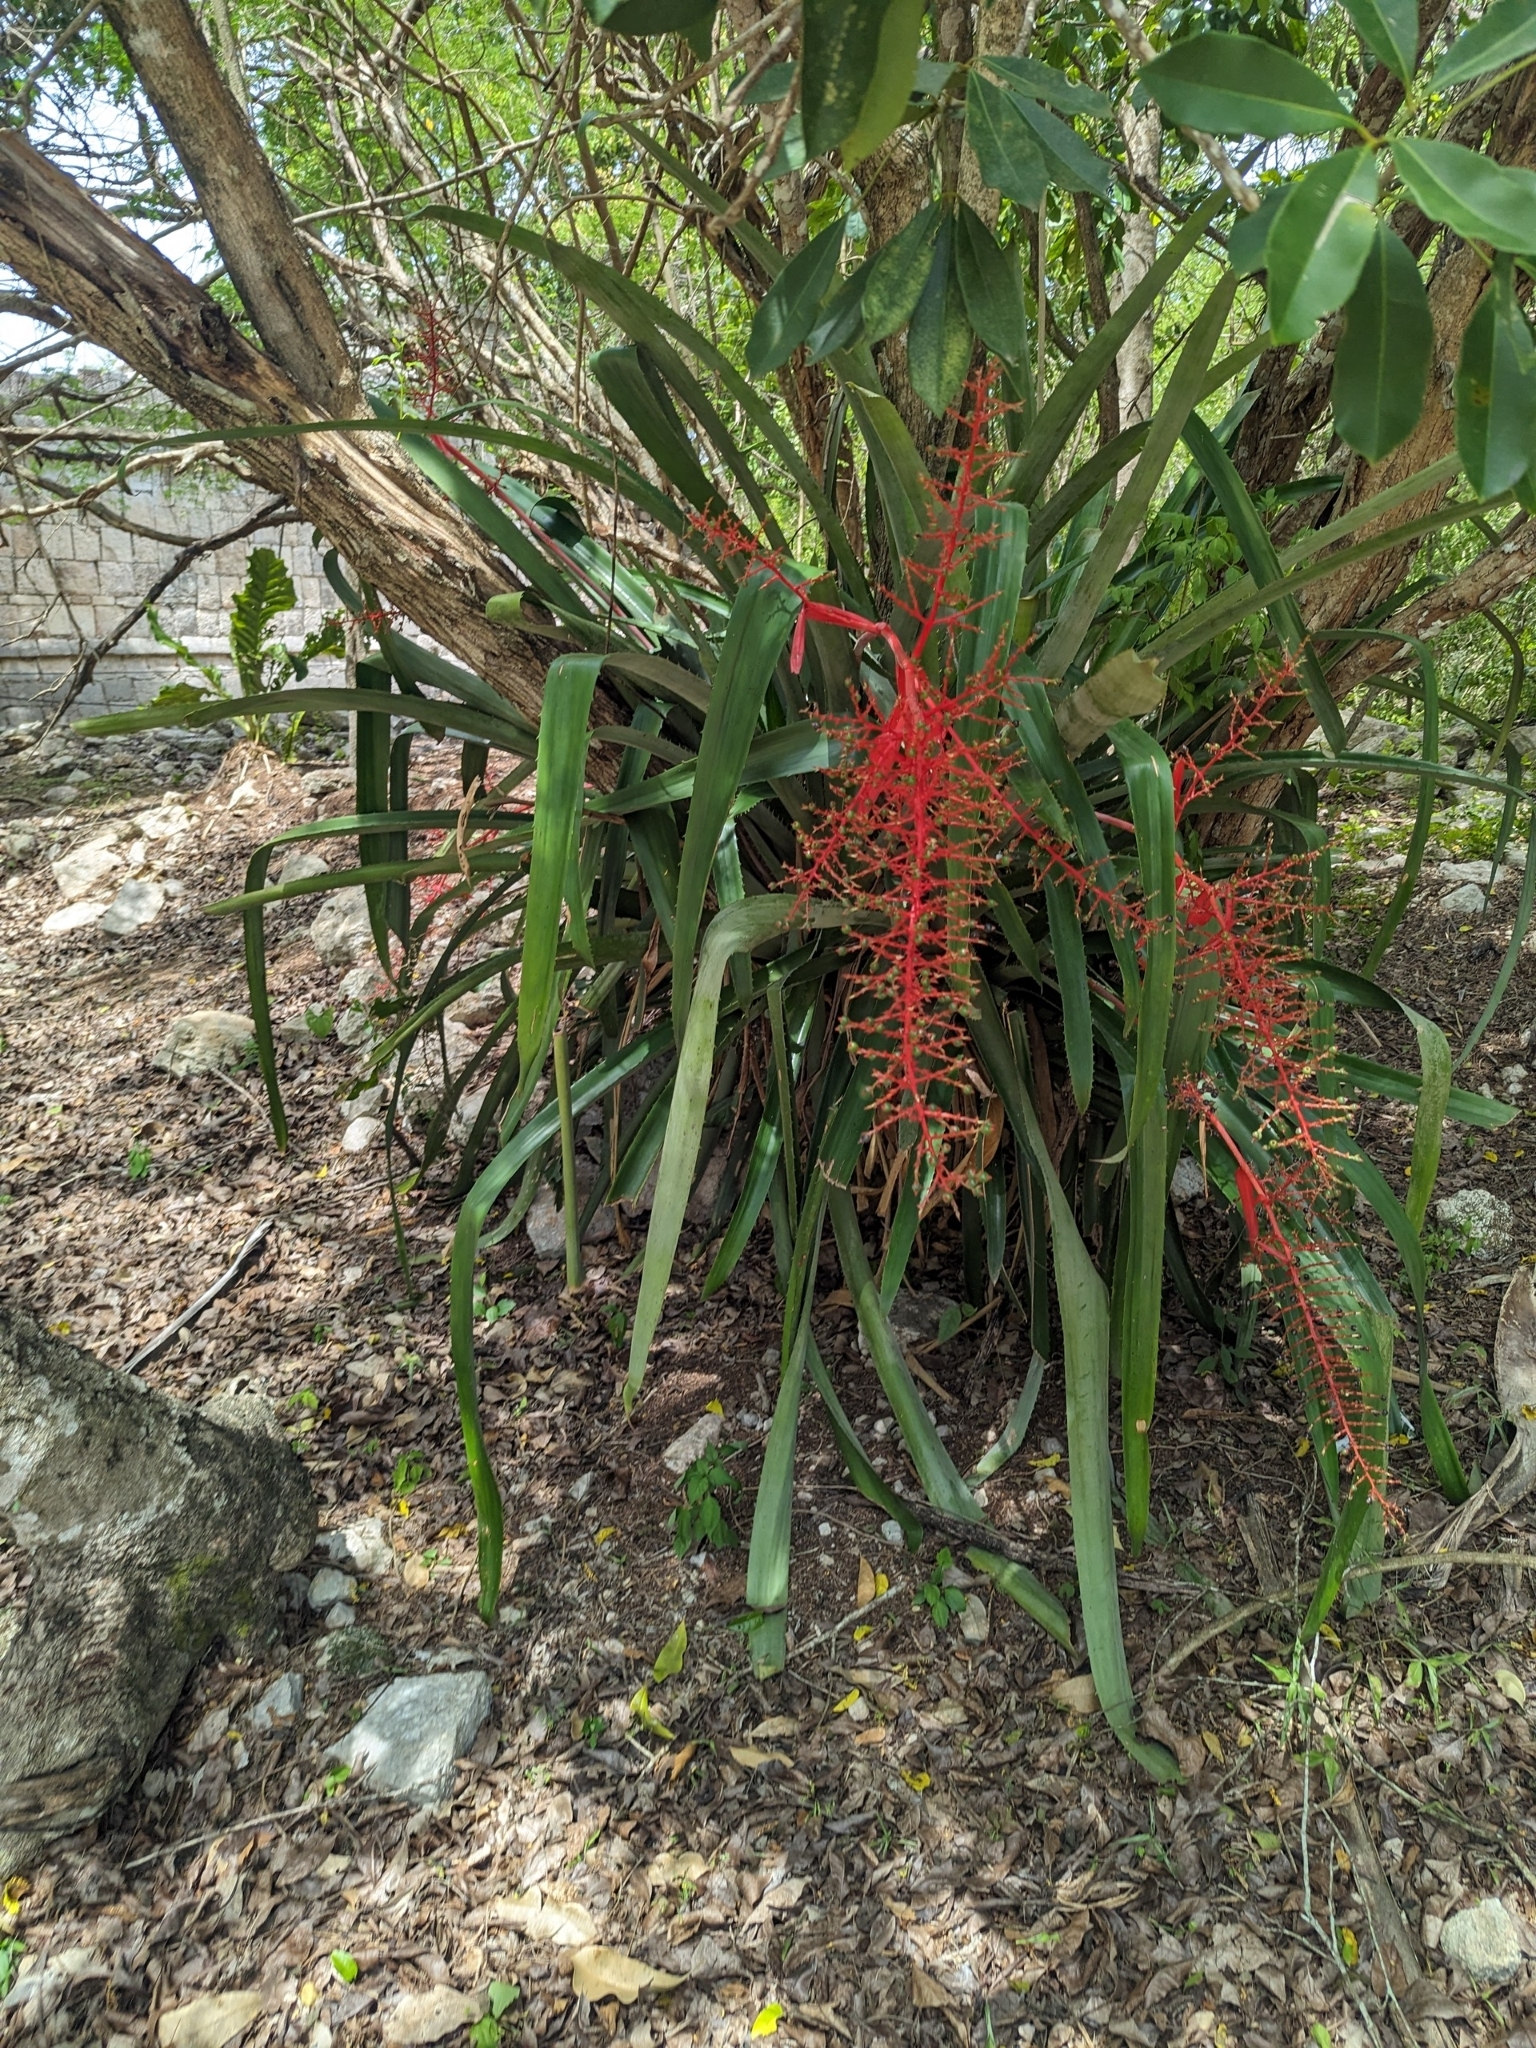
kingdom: Plantae
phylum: Tracheophyta
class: Liliopsida
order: Poales
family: Bromeliaceae
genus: Aechmea
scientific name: Aechmea bracteata
